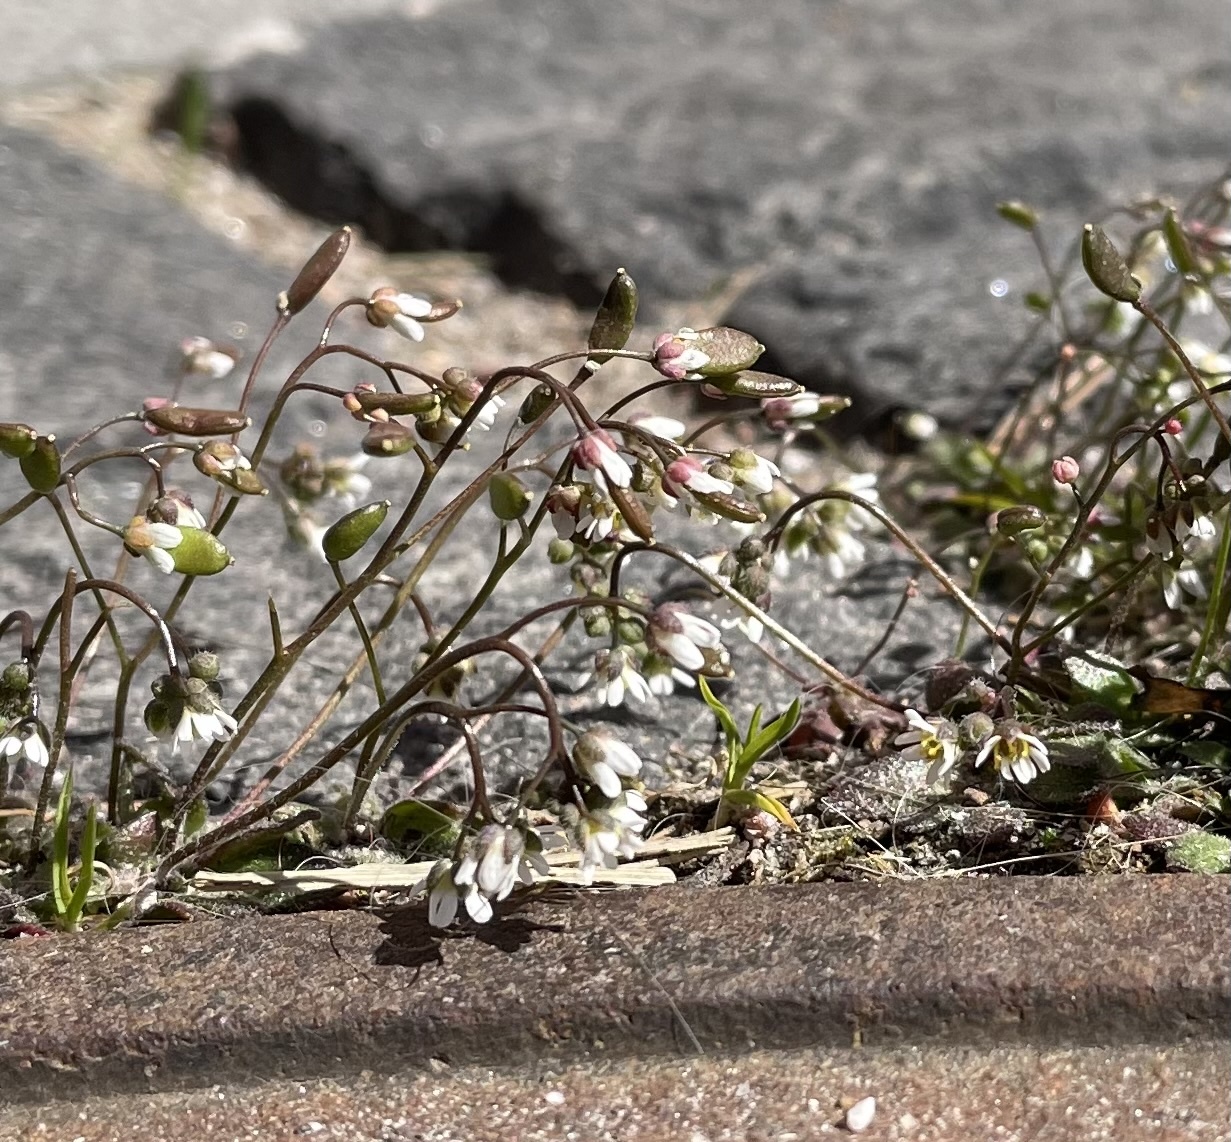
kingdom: Plantae
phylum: Tracheophyta
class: Magnoliopsida
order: Brassicales
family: Brassicaceae
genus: Draba
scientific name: Draba verna
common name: Spring draba
